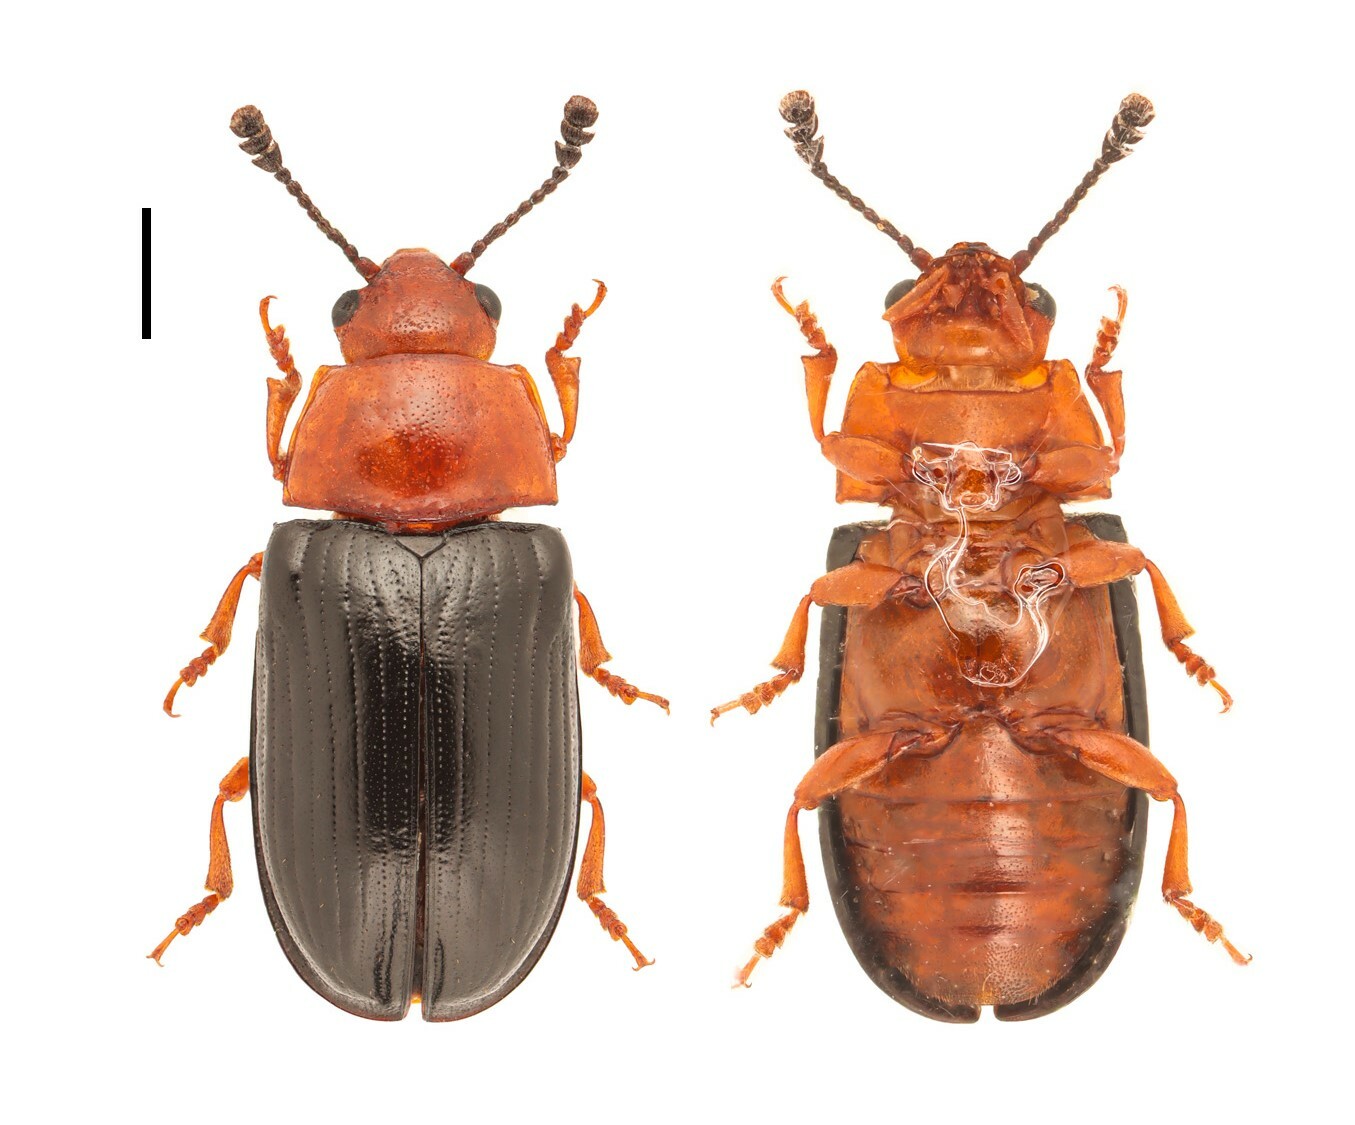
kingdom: Animalia
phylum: Arthropoda
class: Insecta
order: Coleoptera
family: Erotylidae
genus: Triplax
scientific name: Triplax macra
